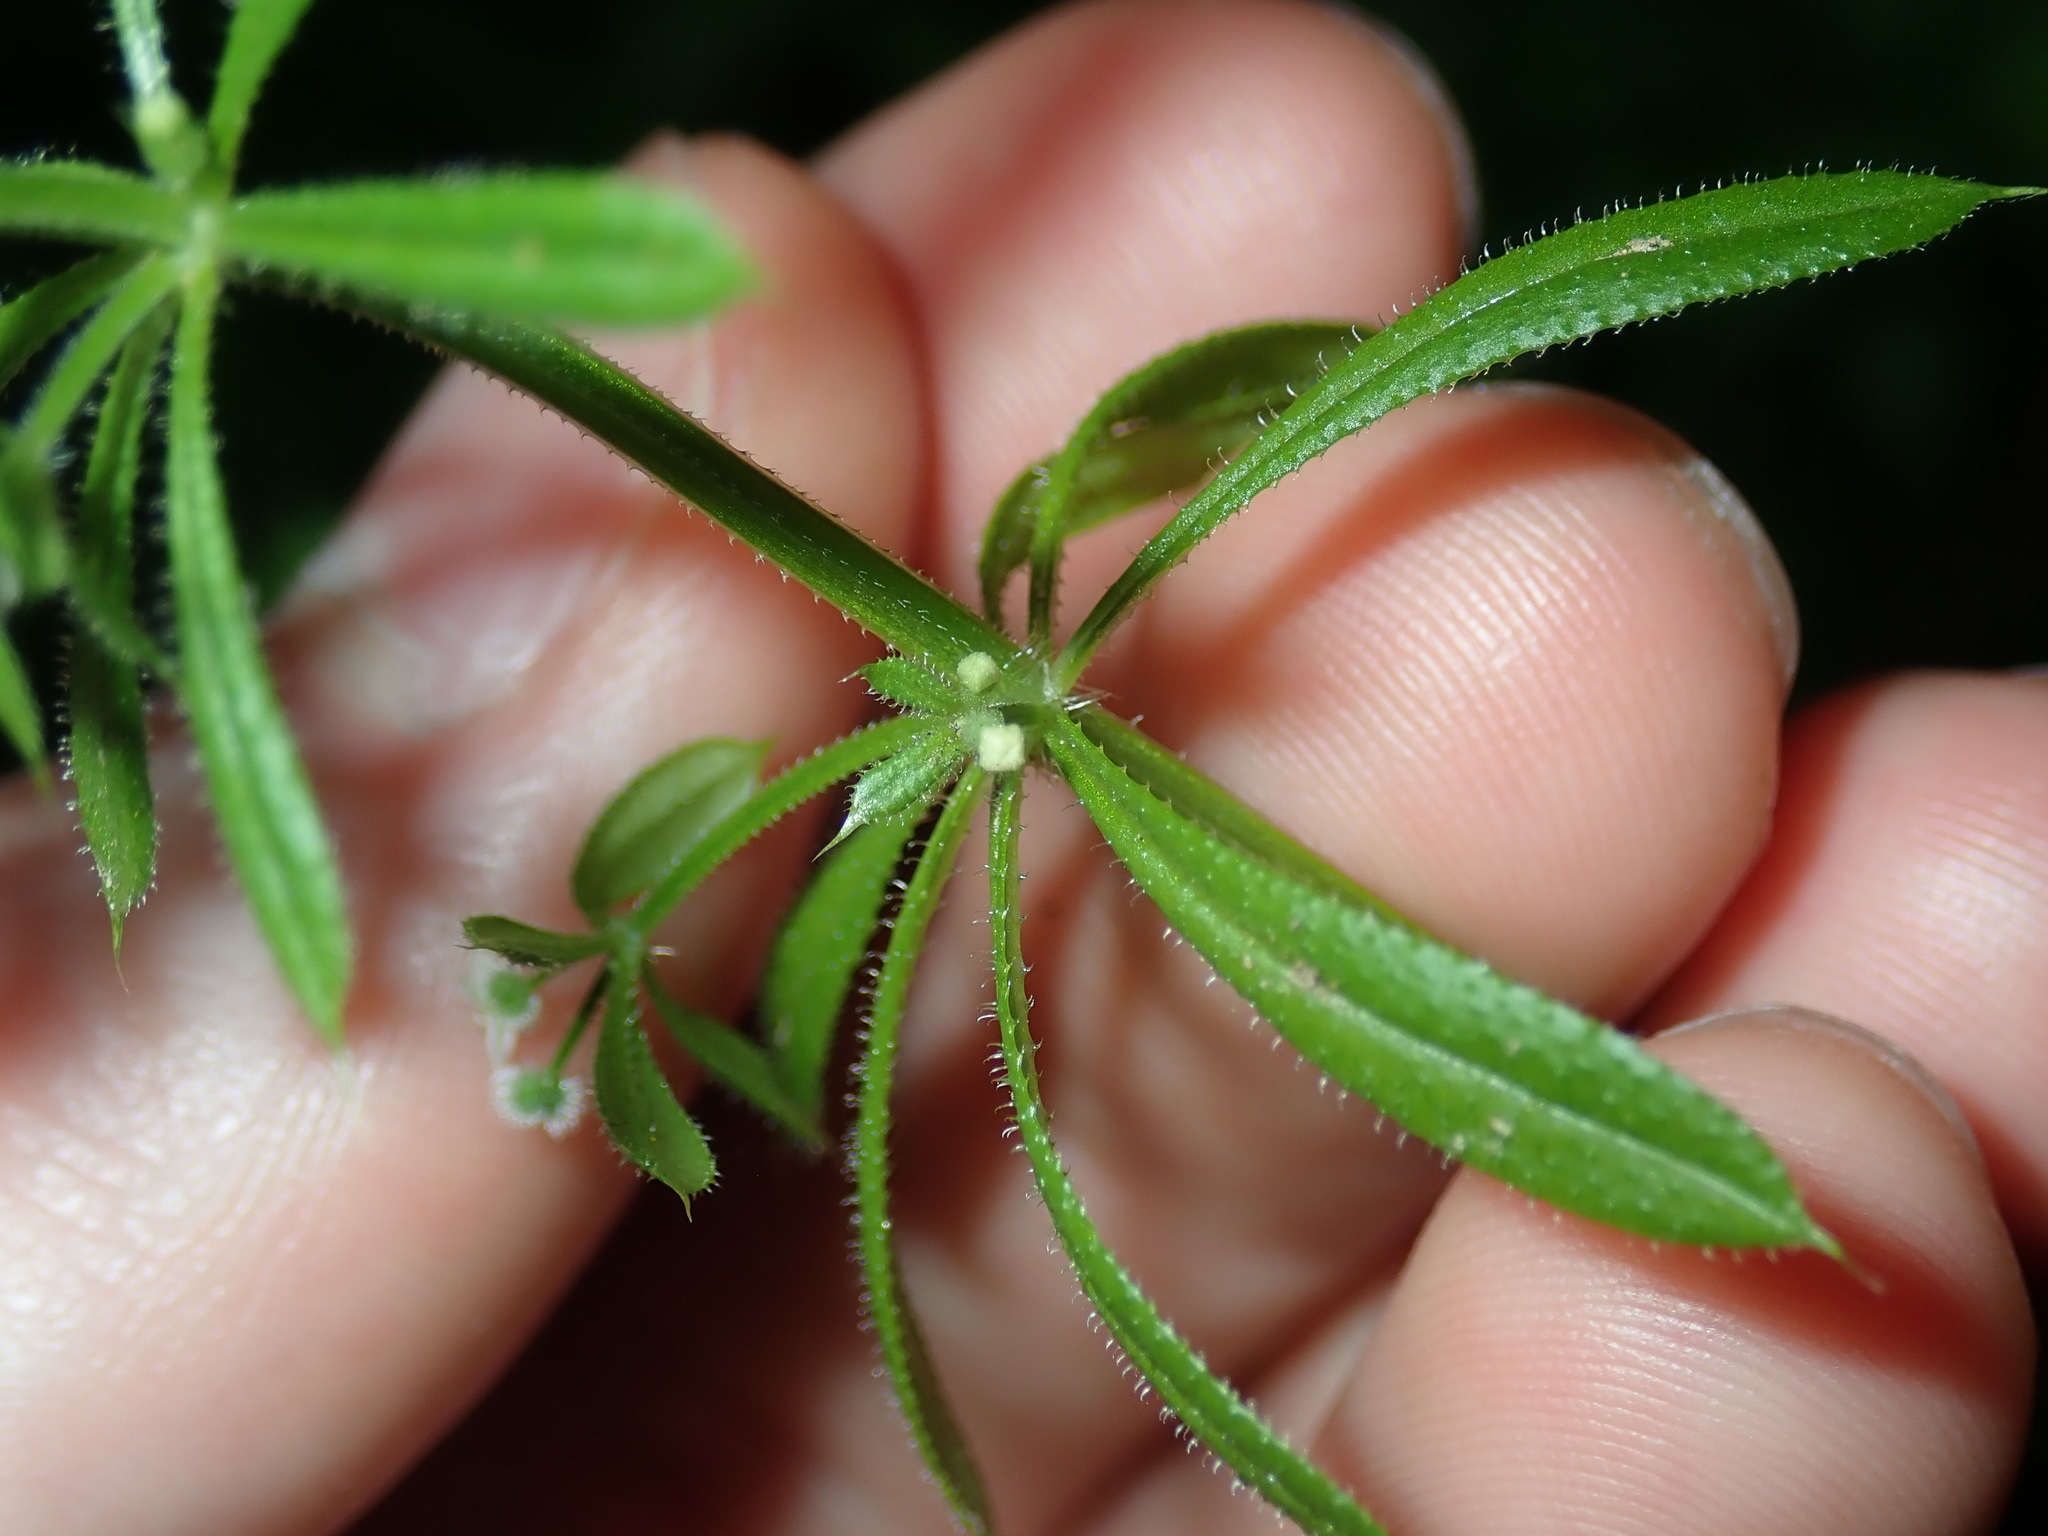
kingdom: Plantae
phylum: Tracheophyta
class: Magnoliopsida
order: Gentianales
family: Rubiaceae
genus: Galium
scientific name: Galium aparine
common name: Cleavers
